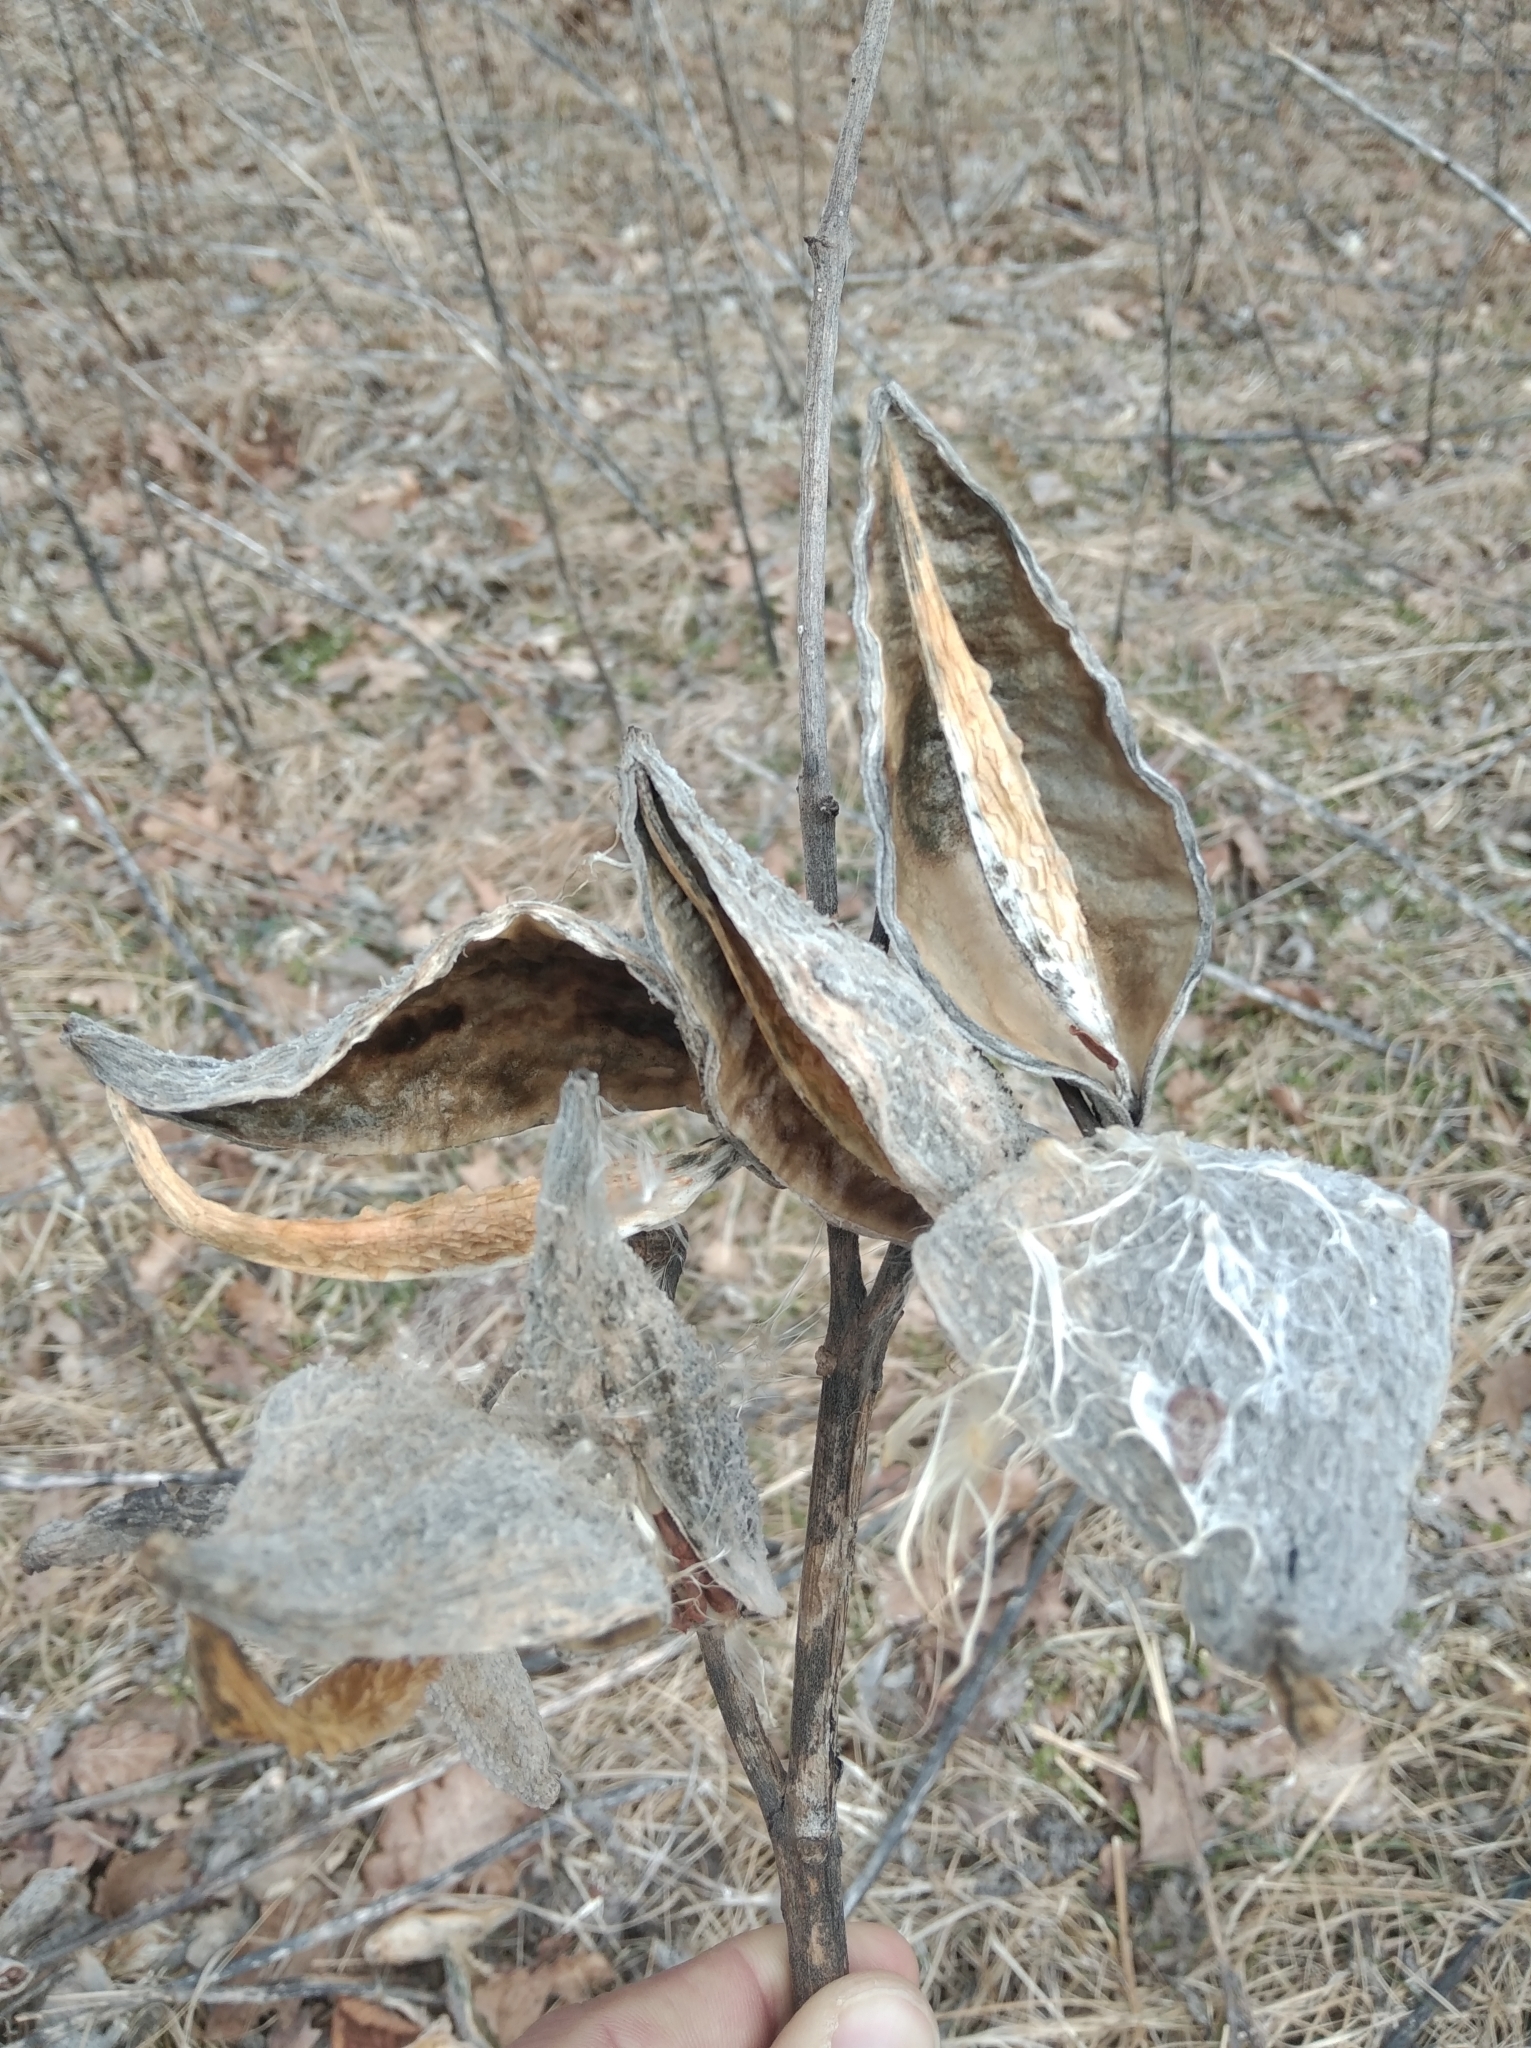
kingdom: Plantae
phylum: Tracheophyta
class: Magnoliopsida
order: Gentianales
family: Apocynaceae
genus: Asclepias
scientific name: Asclepias syriaca
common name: Common milkweed
